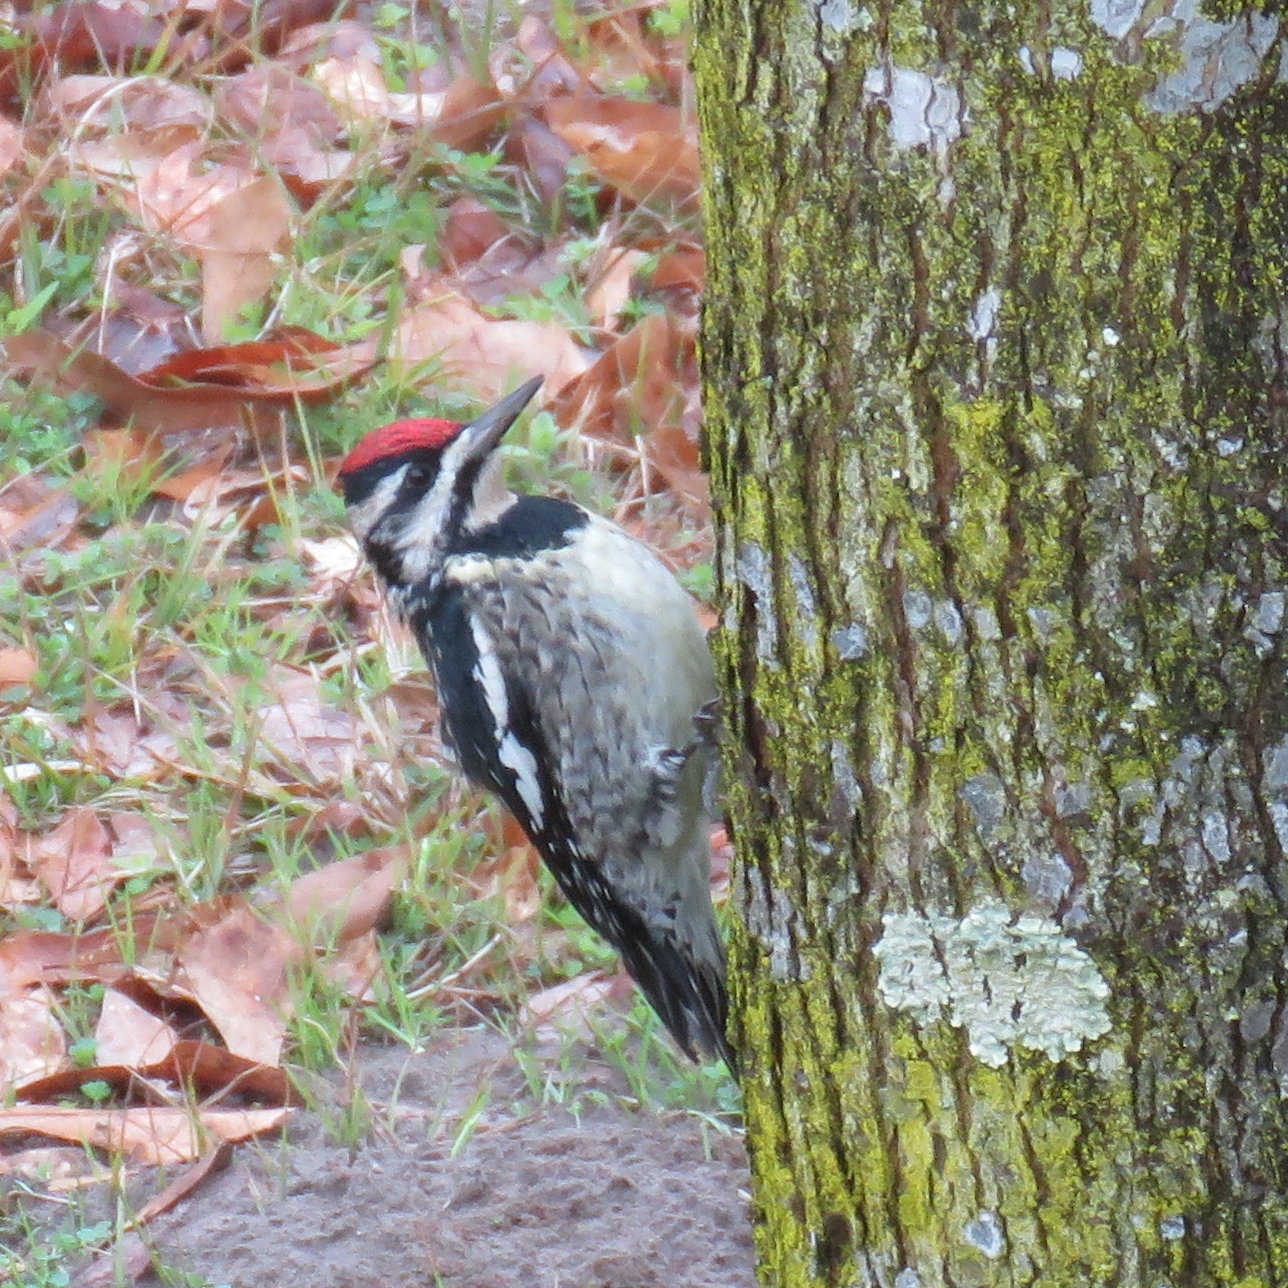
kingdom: Animalia
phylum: Chordata
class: Aves
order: Piciformes
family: Picidae
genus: Sphyrapicus
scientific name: Sphyrapicus varius
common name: Yellow-bellied sapsucker
